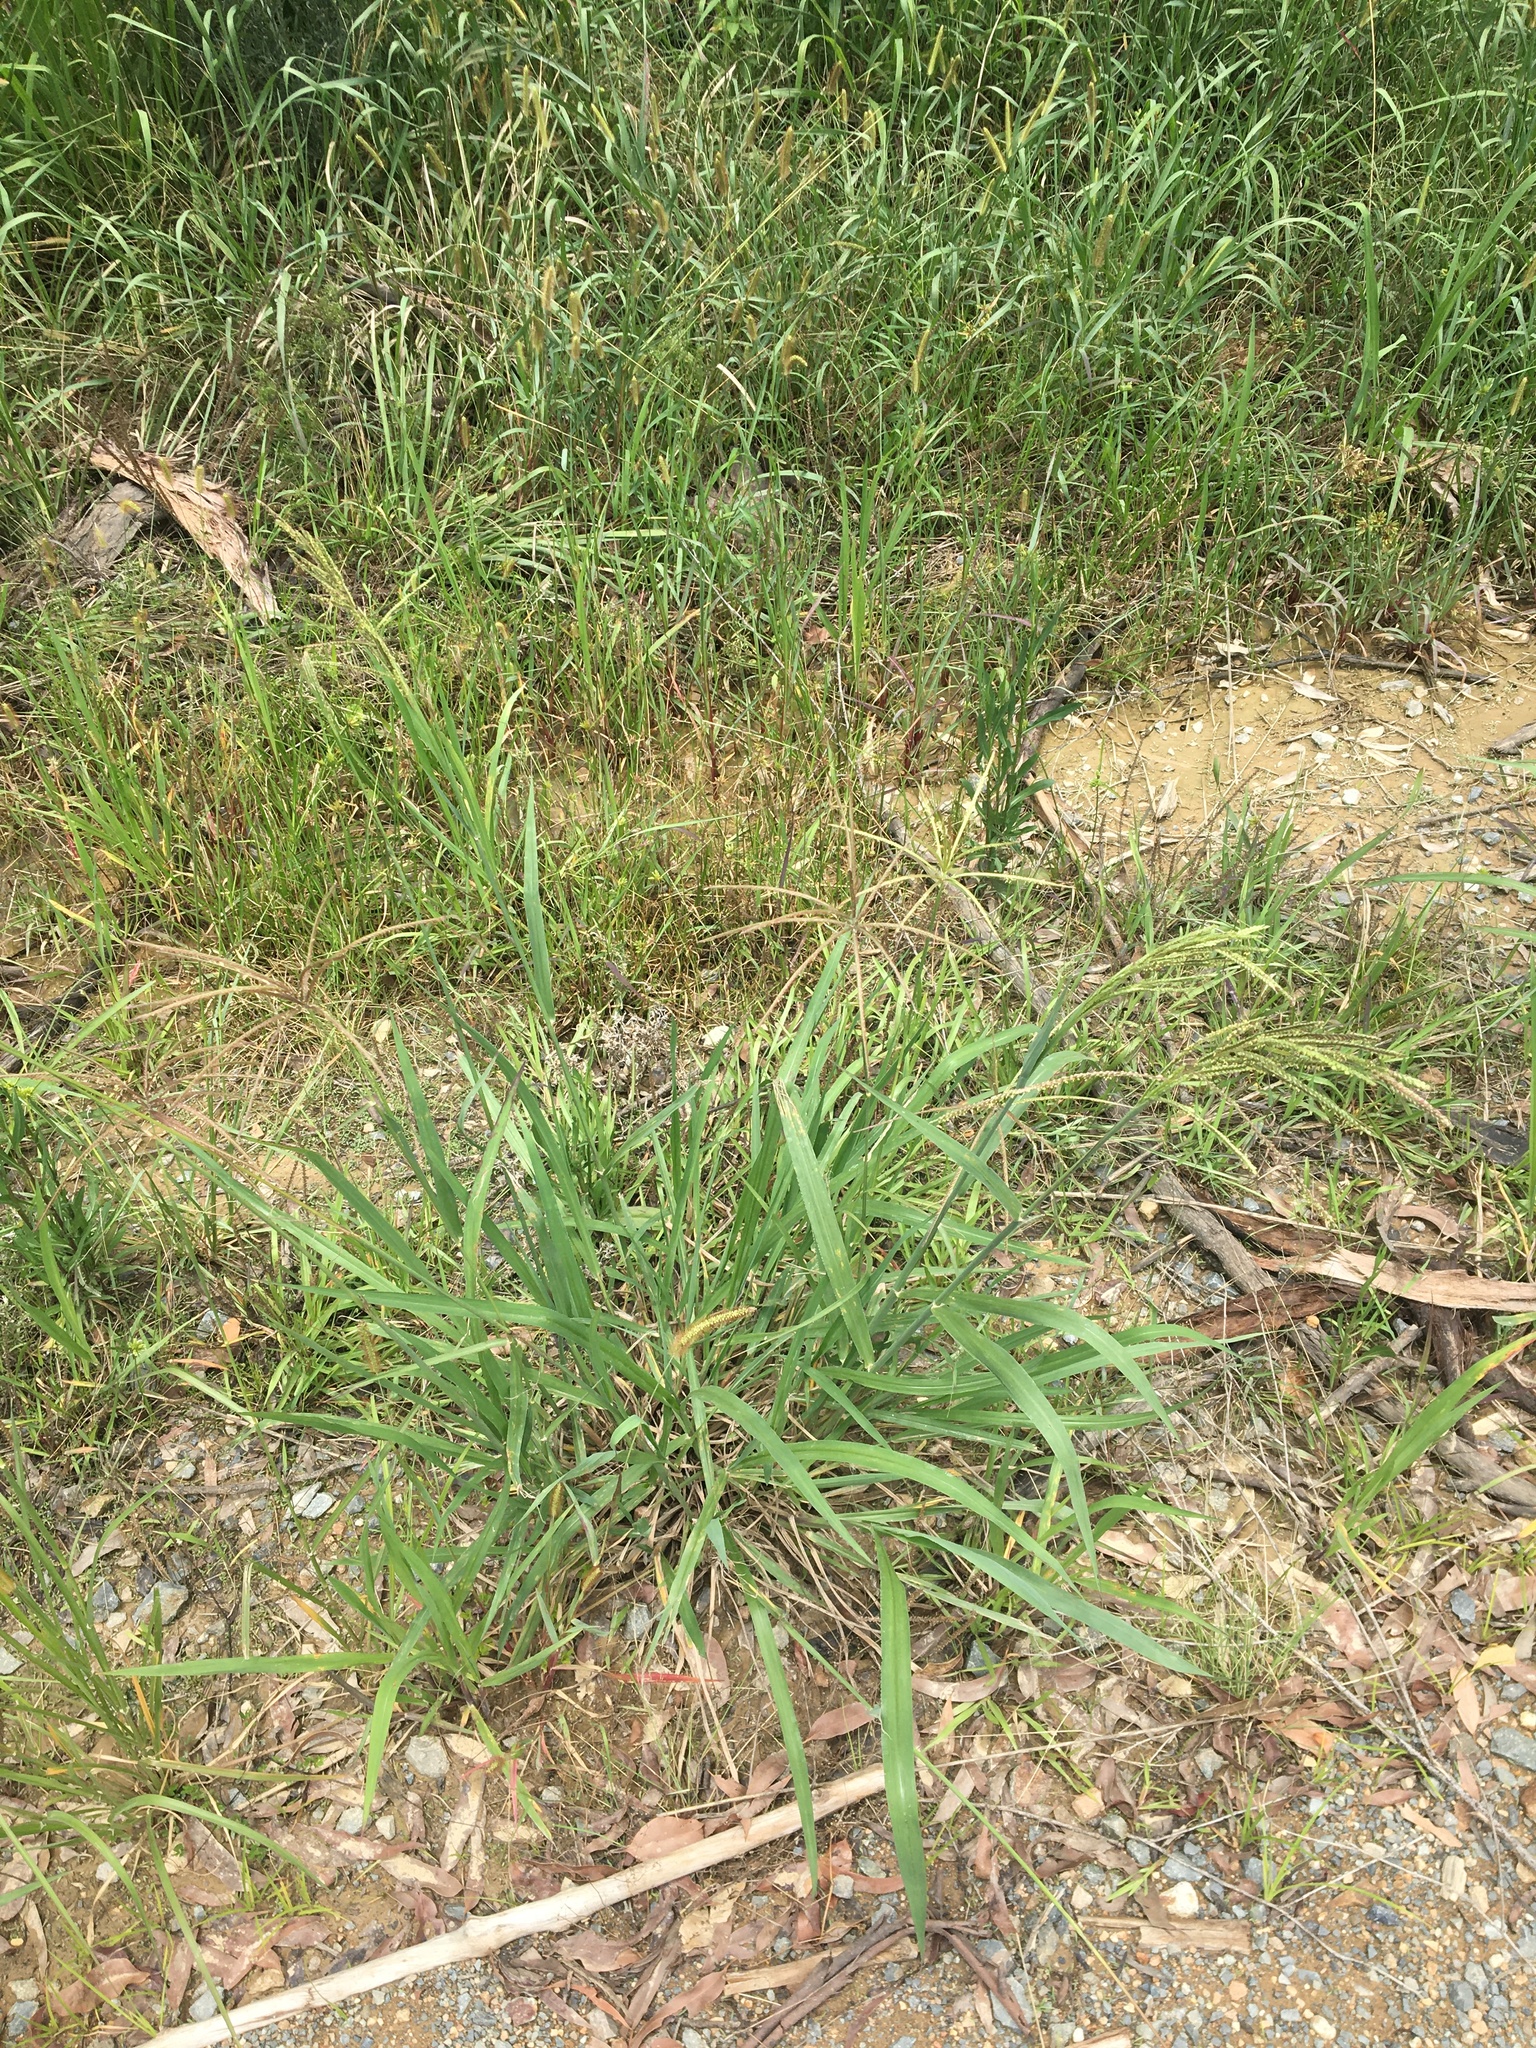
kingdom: Plantae
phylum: Tracheophyta
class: Liliopsida
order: Poales
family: Poaceae
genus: Paspalum
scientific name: Paspalum urvillei
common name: Vasey's grass
